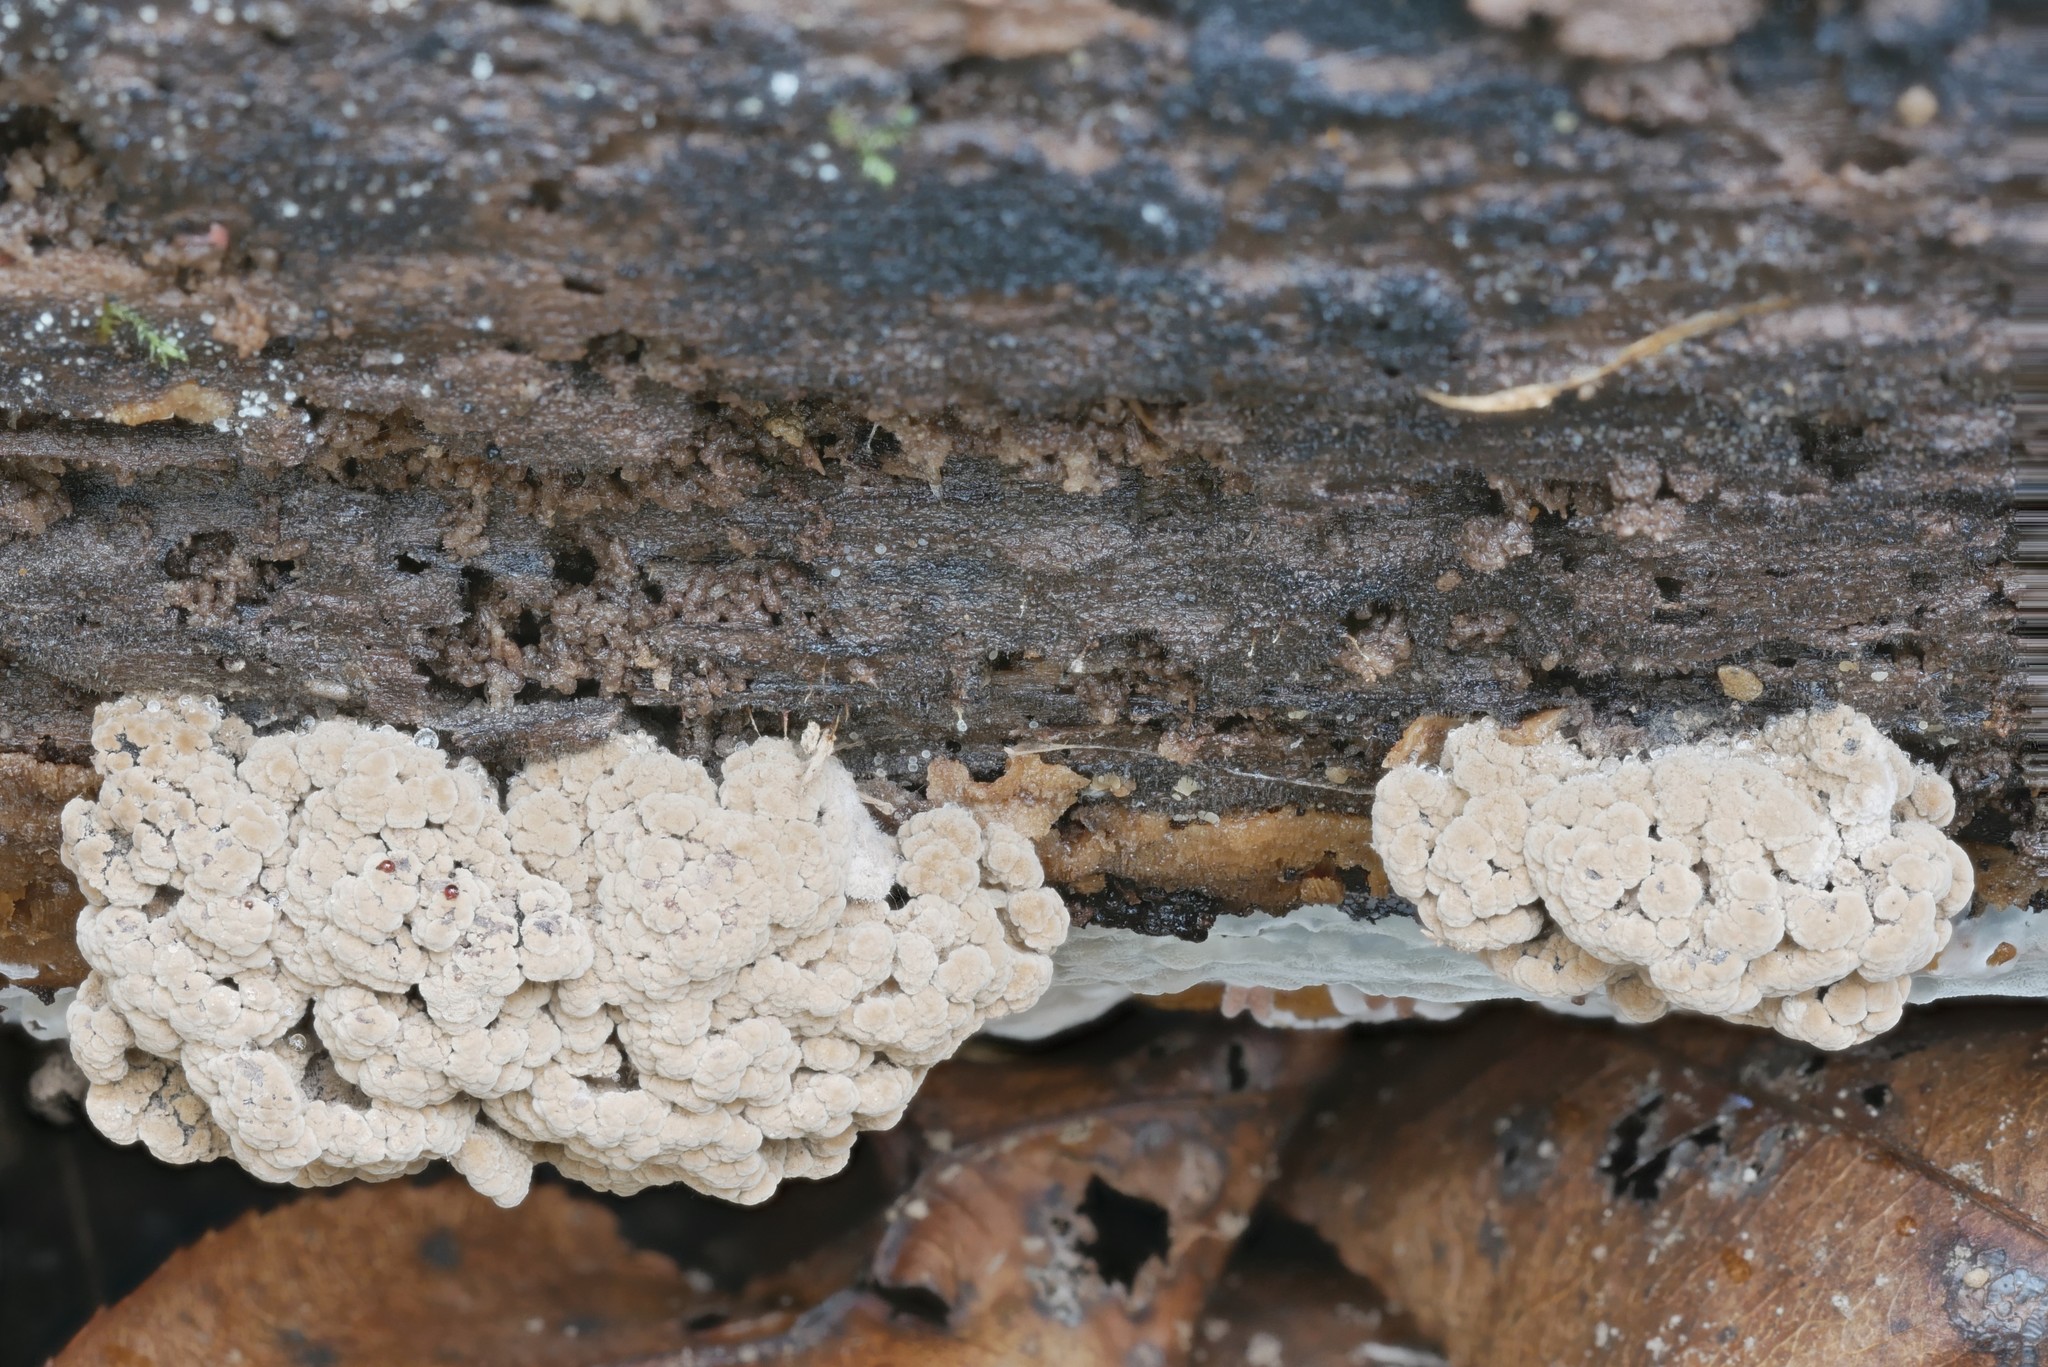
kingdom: Fungi
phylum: Ascomycota
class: Leotiomycetes
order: Helotiales
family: Cordieritidaceae
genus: Diplocarpa
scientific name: Diplocarpa irregularis
